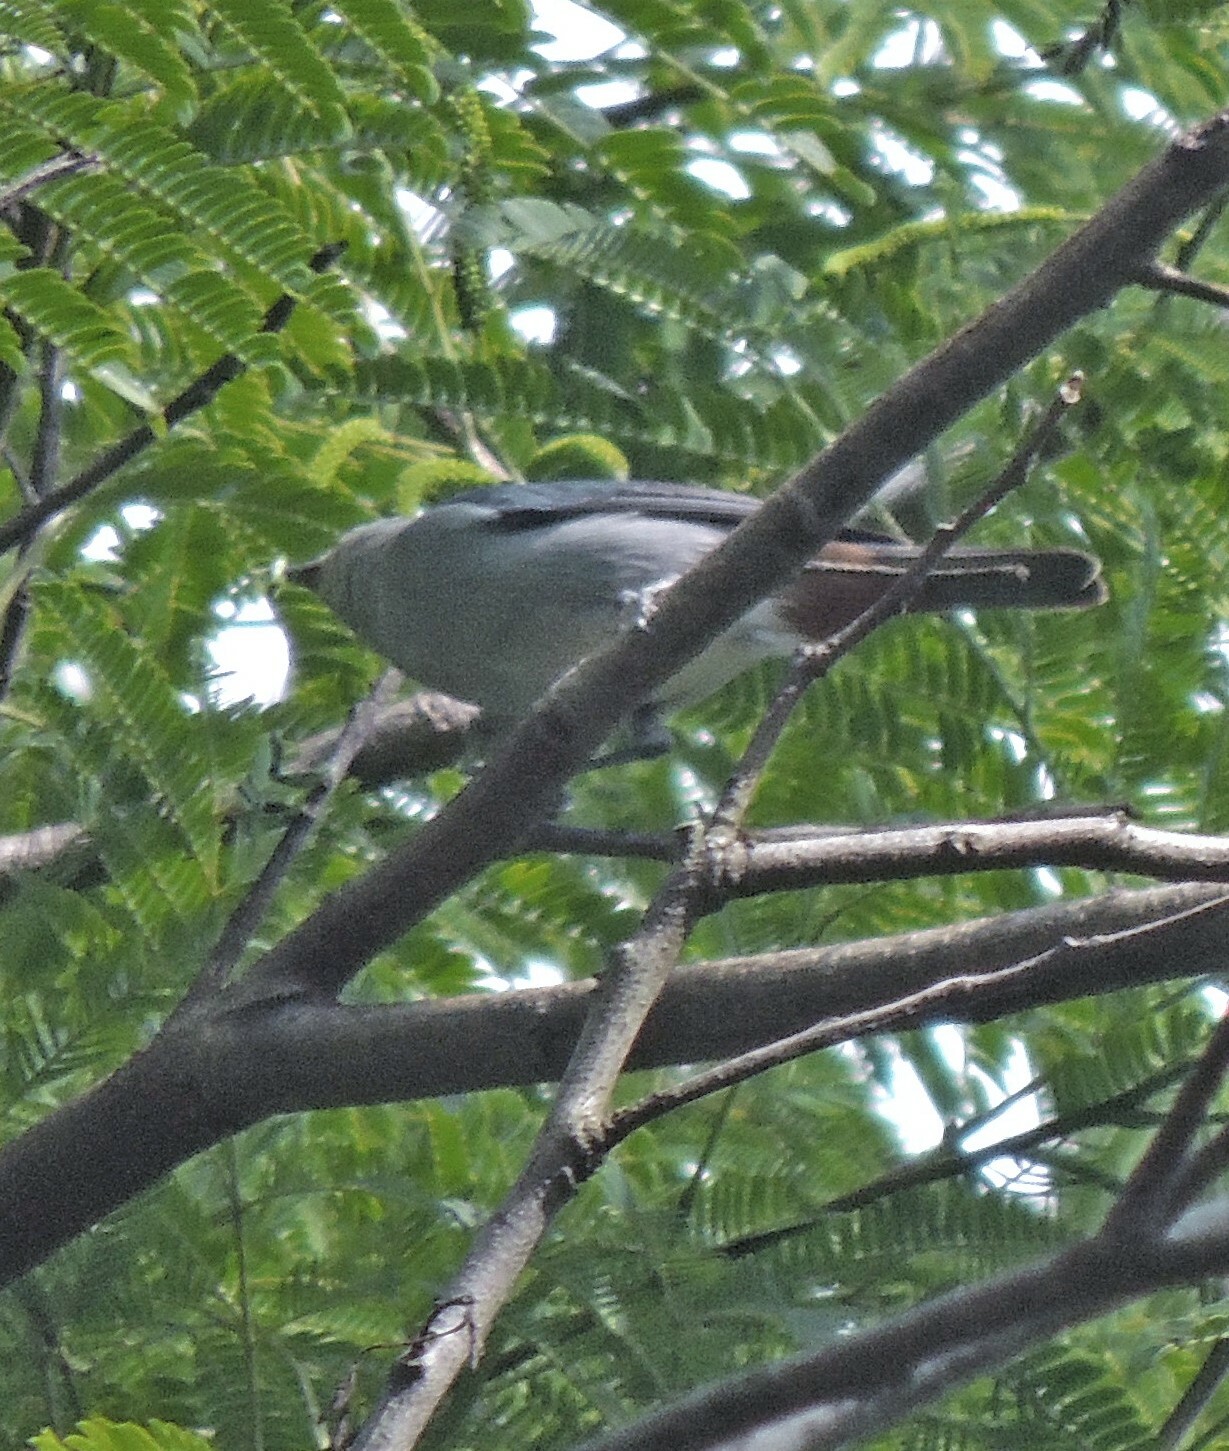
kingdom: Animalia
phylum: Chordata
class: Aves
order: Passeriformes
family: Thraupidae
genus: Conirostrum
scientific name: Conirostrum speciosum
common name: Chestnut-vented conebill
